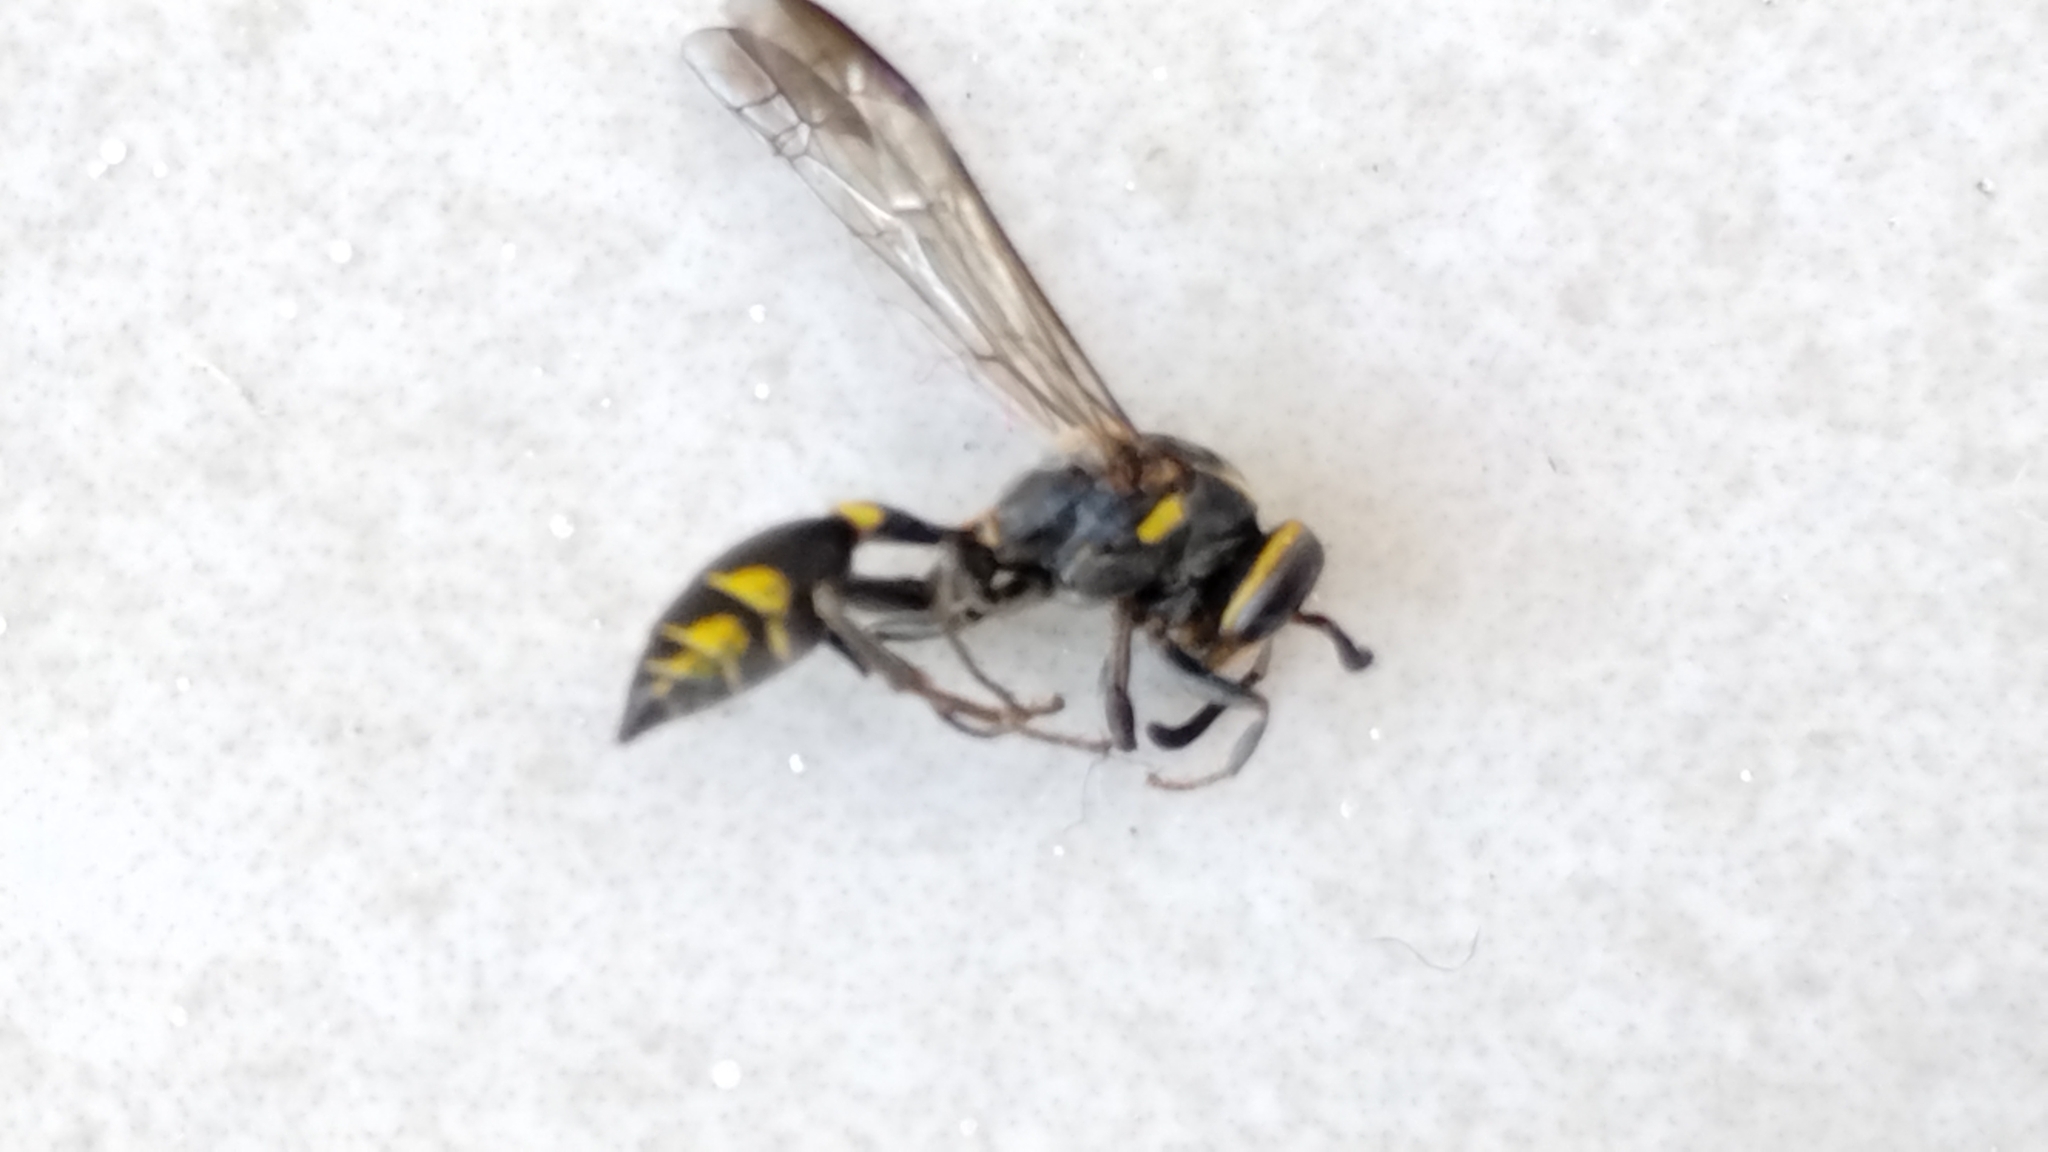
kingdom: Animalia
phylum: Arthropoda
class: Insecta
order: Hymenoptera
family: Eumenidae
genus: Polybia
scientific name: Polybia ruficeps
